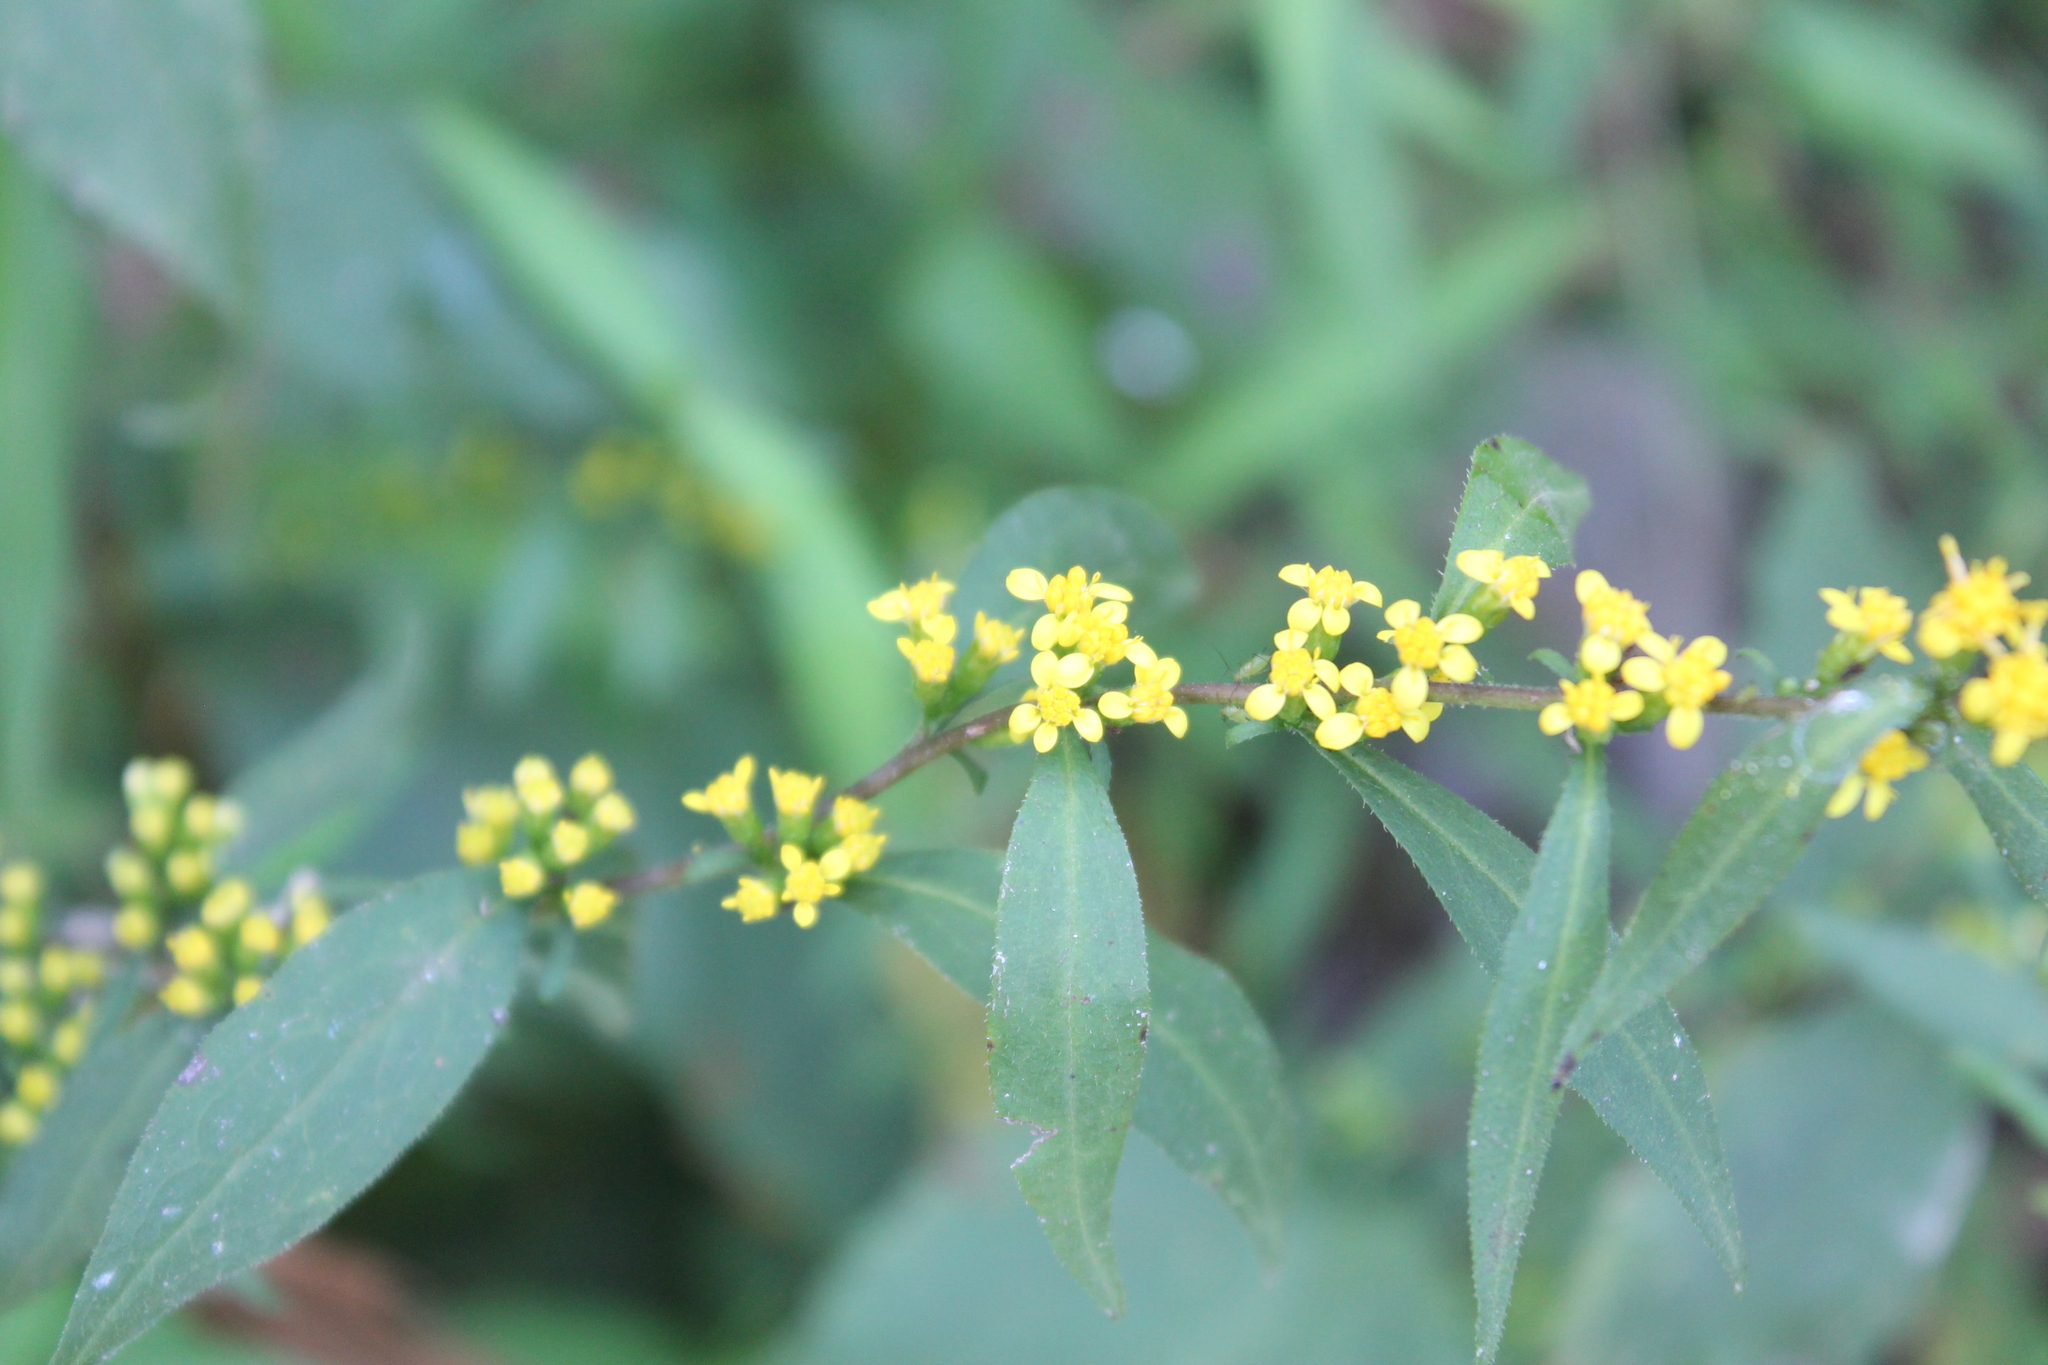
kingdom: Plantae
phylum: Tracheophyta
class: Magnoliopsida
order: Asterales
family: Asteraceae
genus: Solidago
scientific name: Solidago zedia
